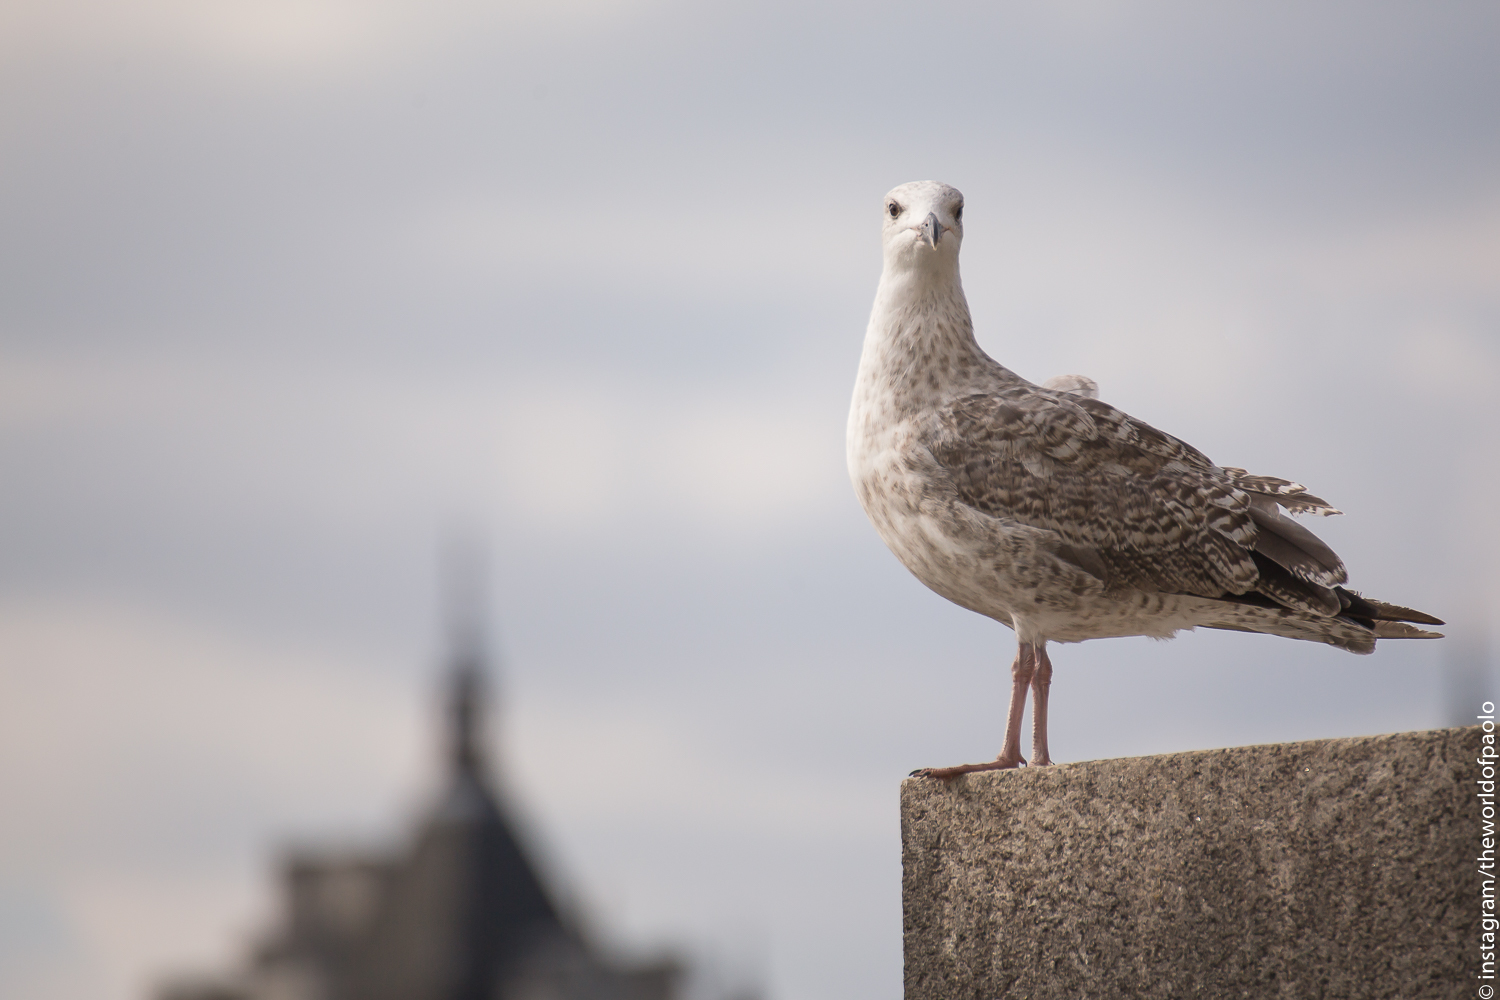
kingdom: Animalia
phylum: Chordata
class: Aves
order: Charadriiformes
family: Laridae
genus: Larus
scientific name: Larus argentatus
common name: Herring gull
